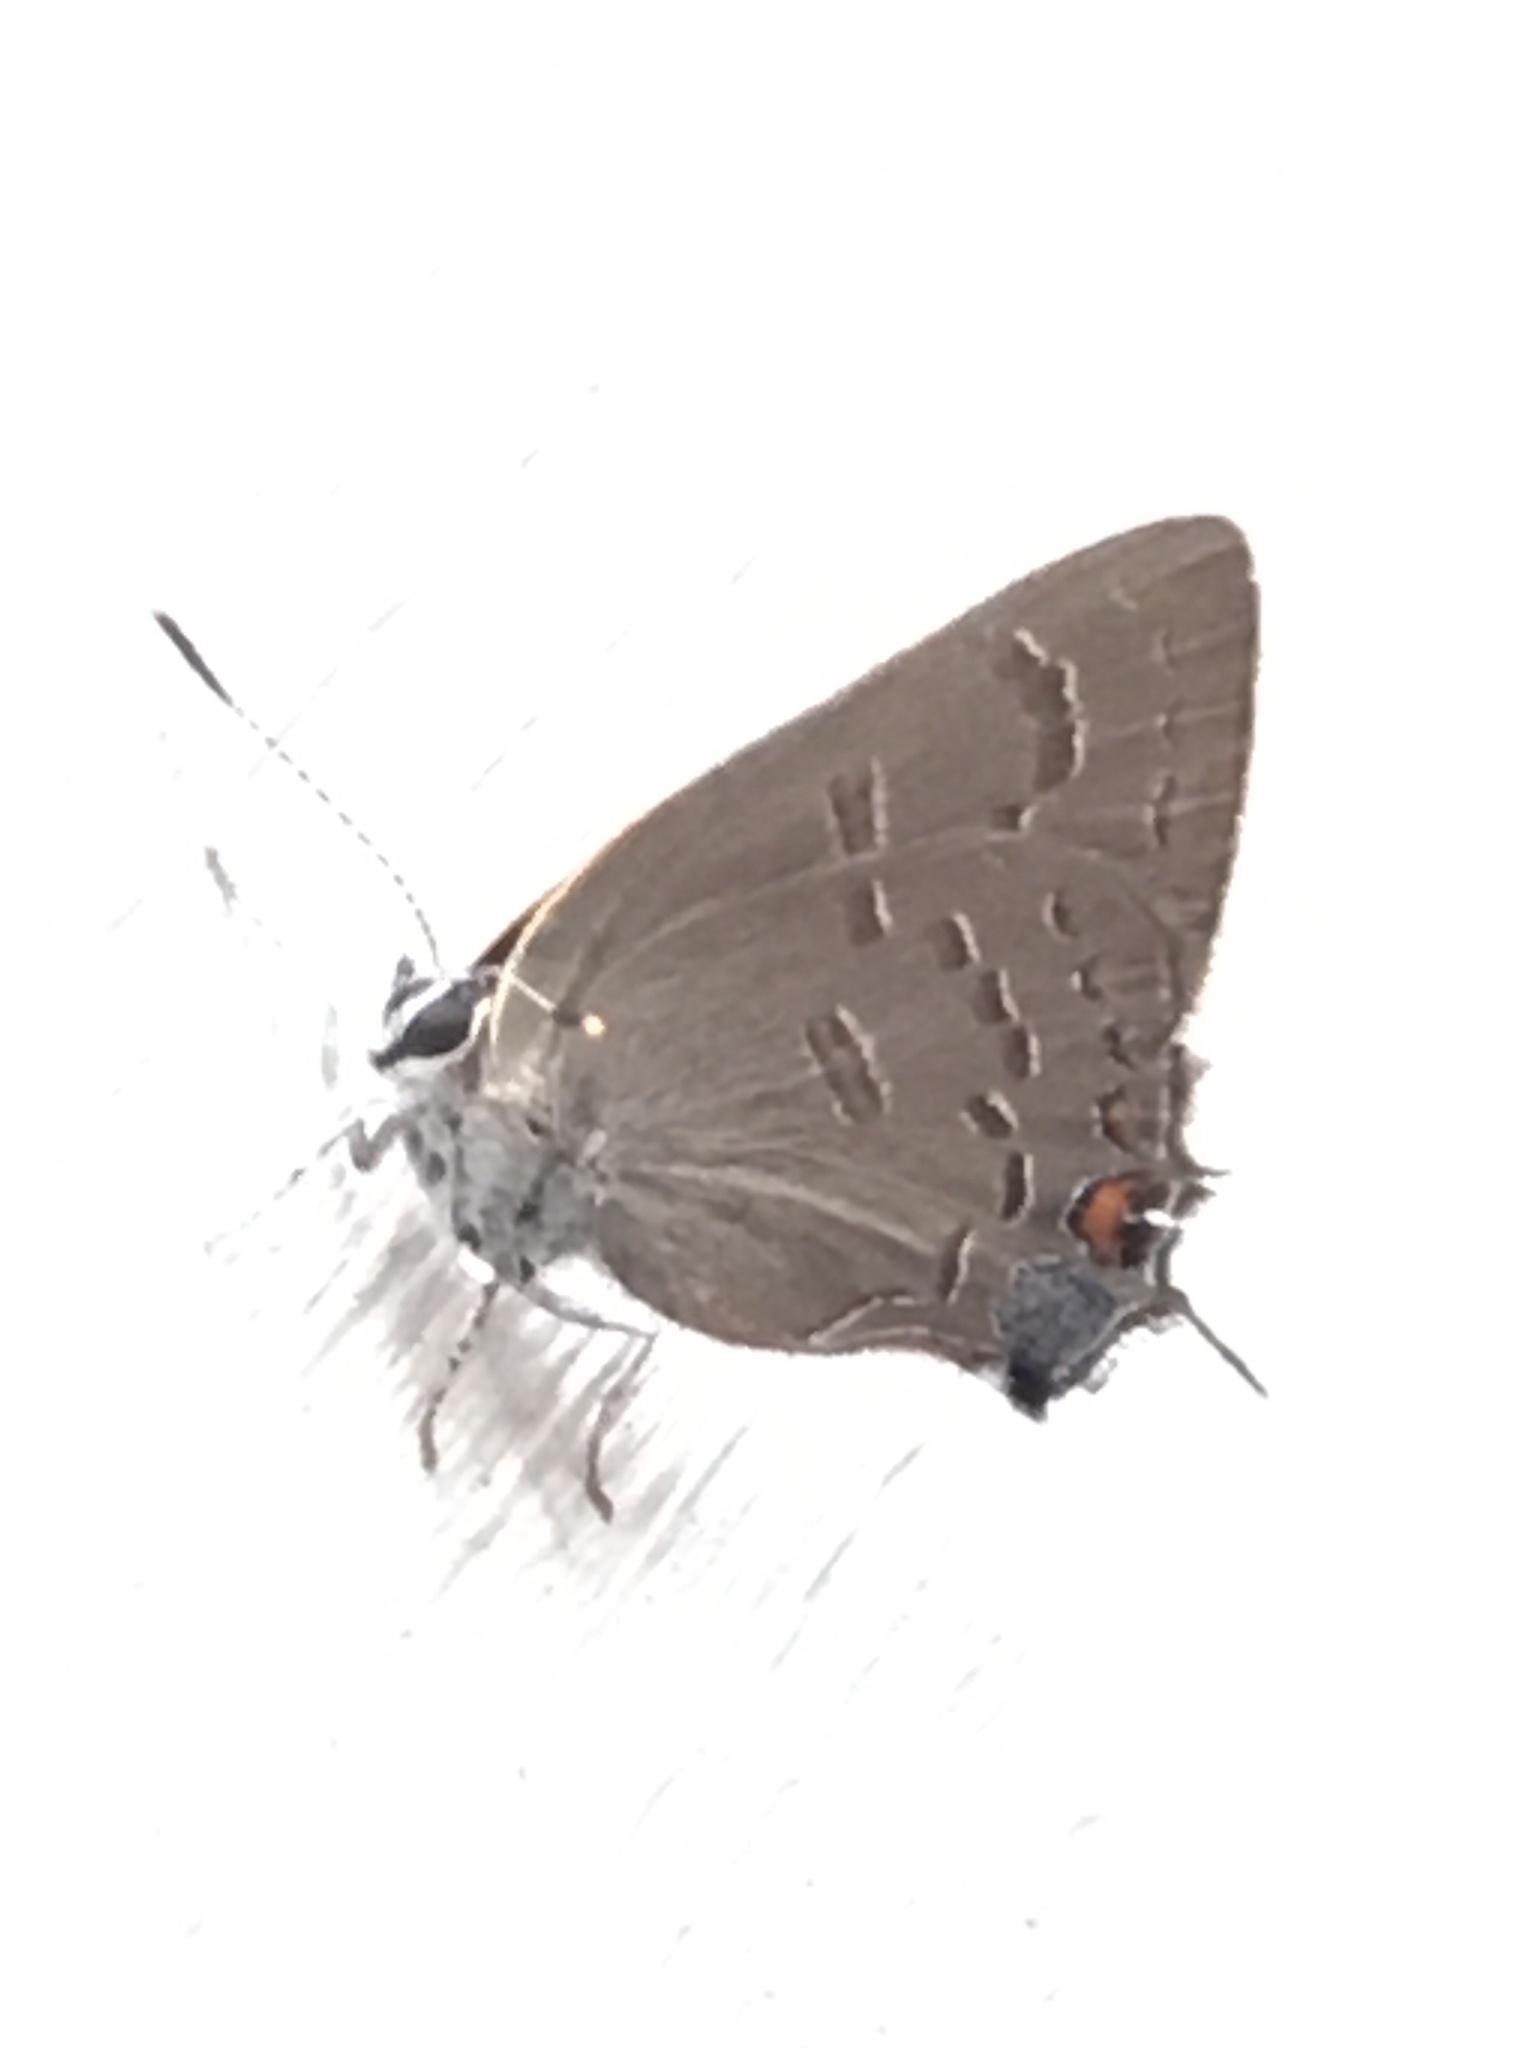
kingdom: Animalia
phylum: Arthropoda
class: Insecta
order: Lepidoptera
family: Lycaenidae
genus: Satyrium
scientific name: Satyrium calanus
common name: Banded hairstreak
